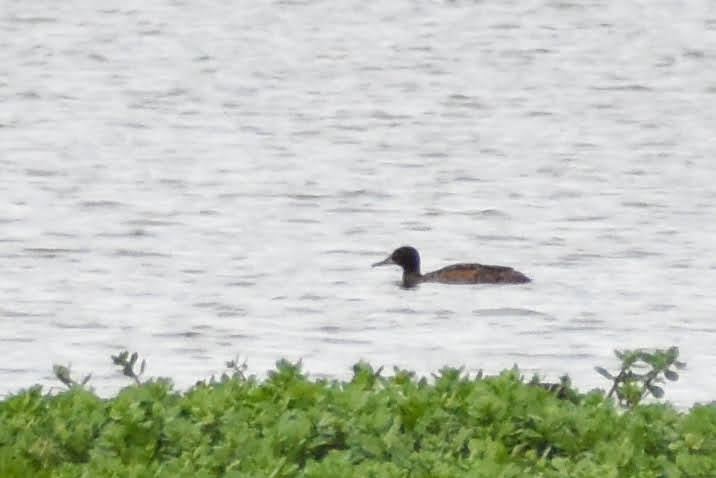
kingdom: Animalia
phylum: Chordata
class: Aves
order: Anseriformes
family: Anatidae
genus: Heteronetta
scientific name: Heteronetta atricapilla
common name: Black-headed duck
